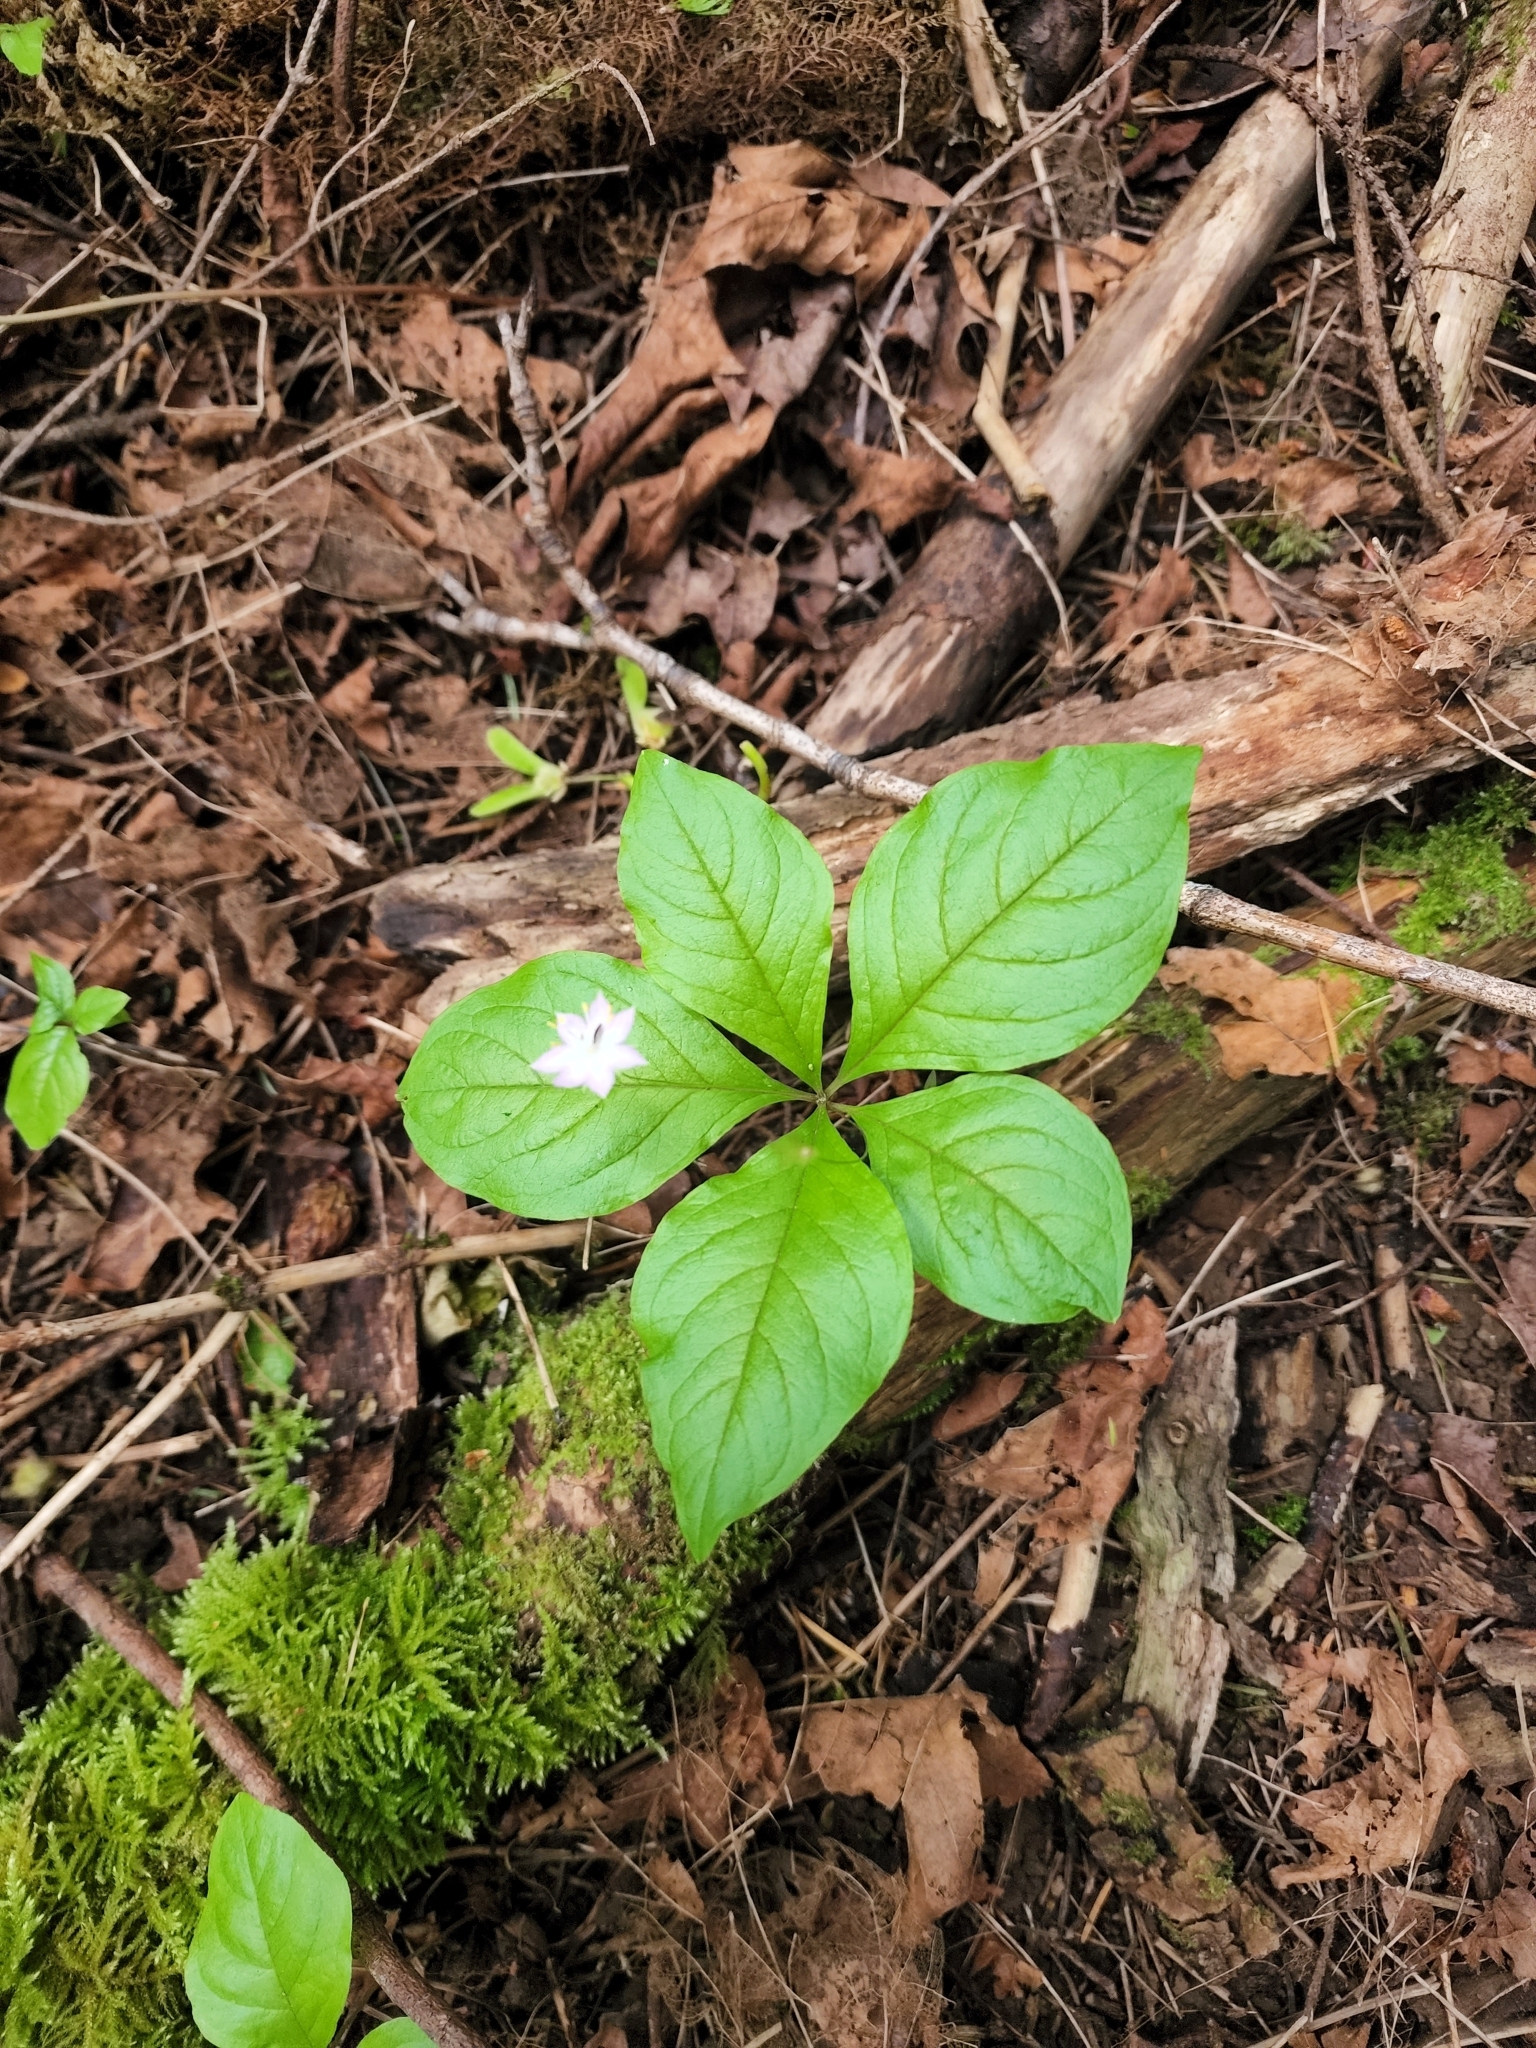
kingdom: Plantae
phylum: Tracheophyta
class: Magnoliopsida
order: Ericales
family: Primulaceae
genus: Lysimachia
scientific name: Lysimachia latifolia
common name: Pacific starflower
